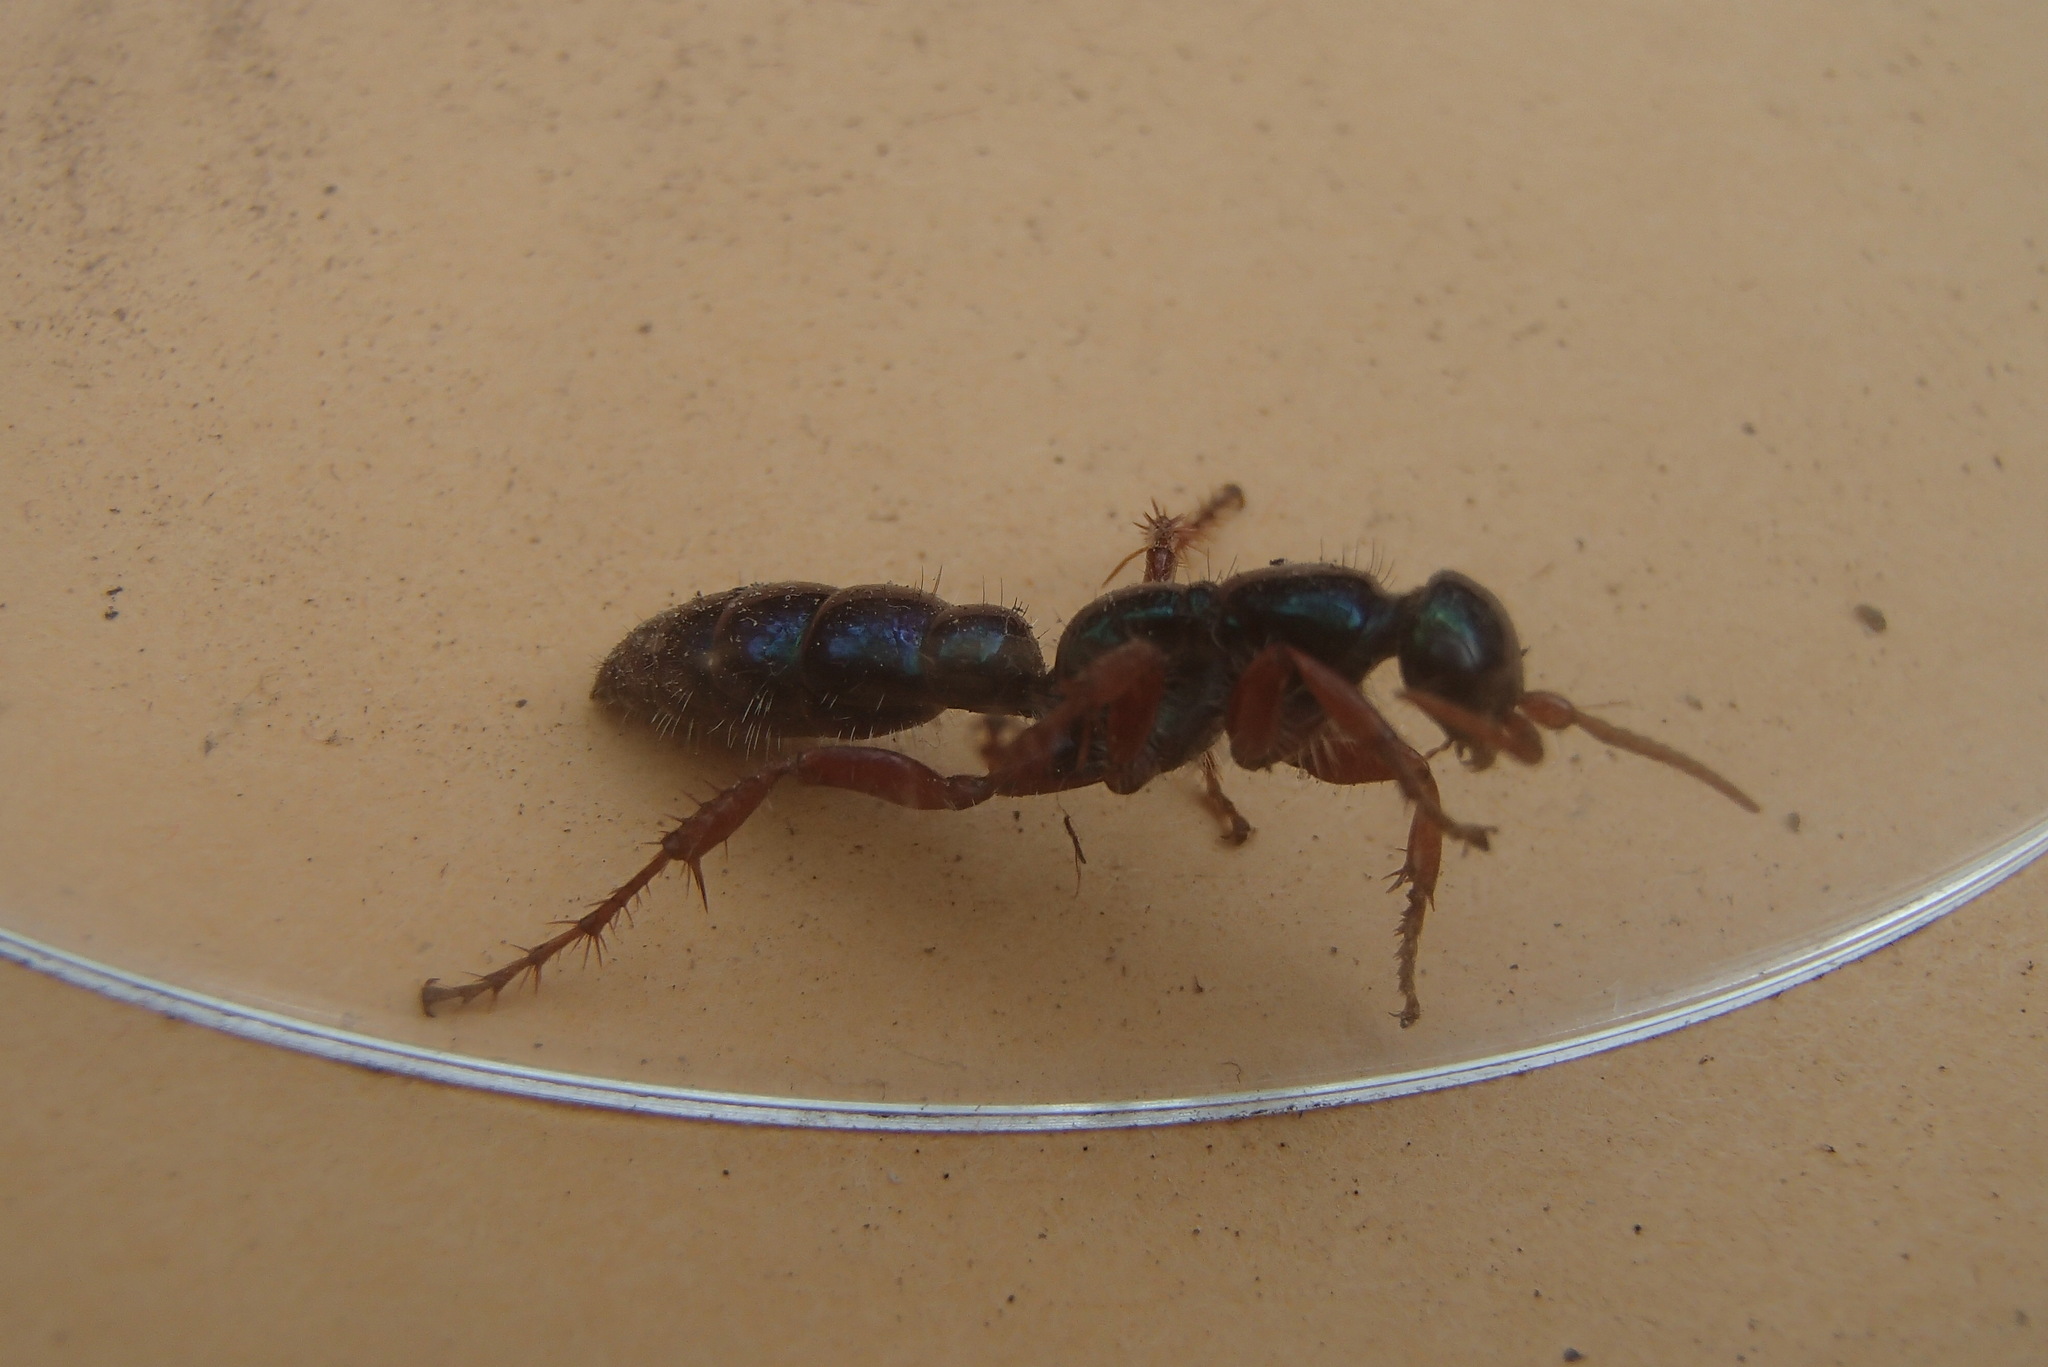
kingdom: Animalia
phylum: Arthropoda
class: Insecta
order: Hymenoptera
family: Tiphiidae
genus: Diamma
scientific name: Diamma
